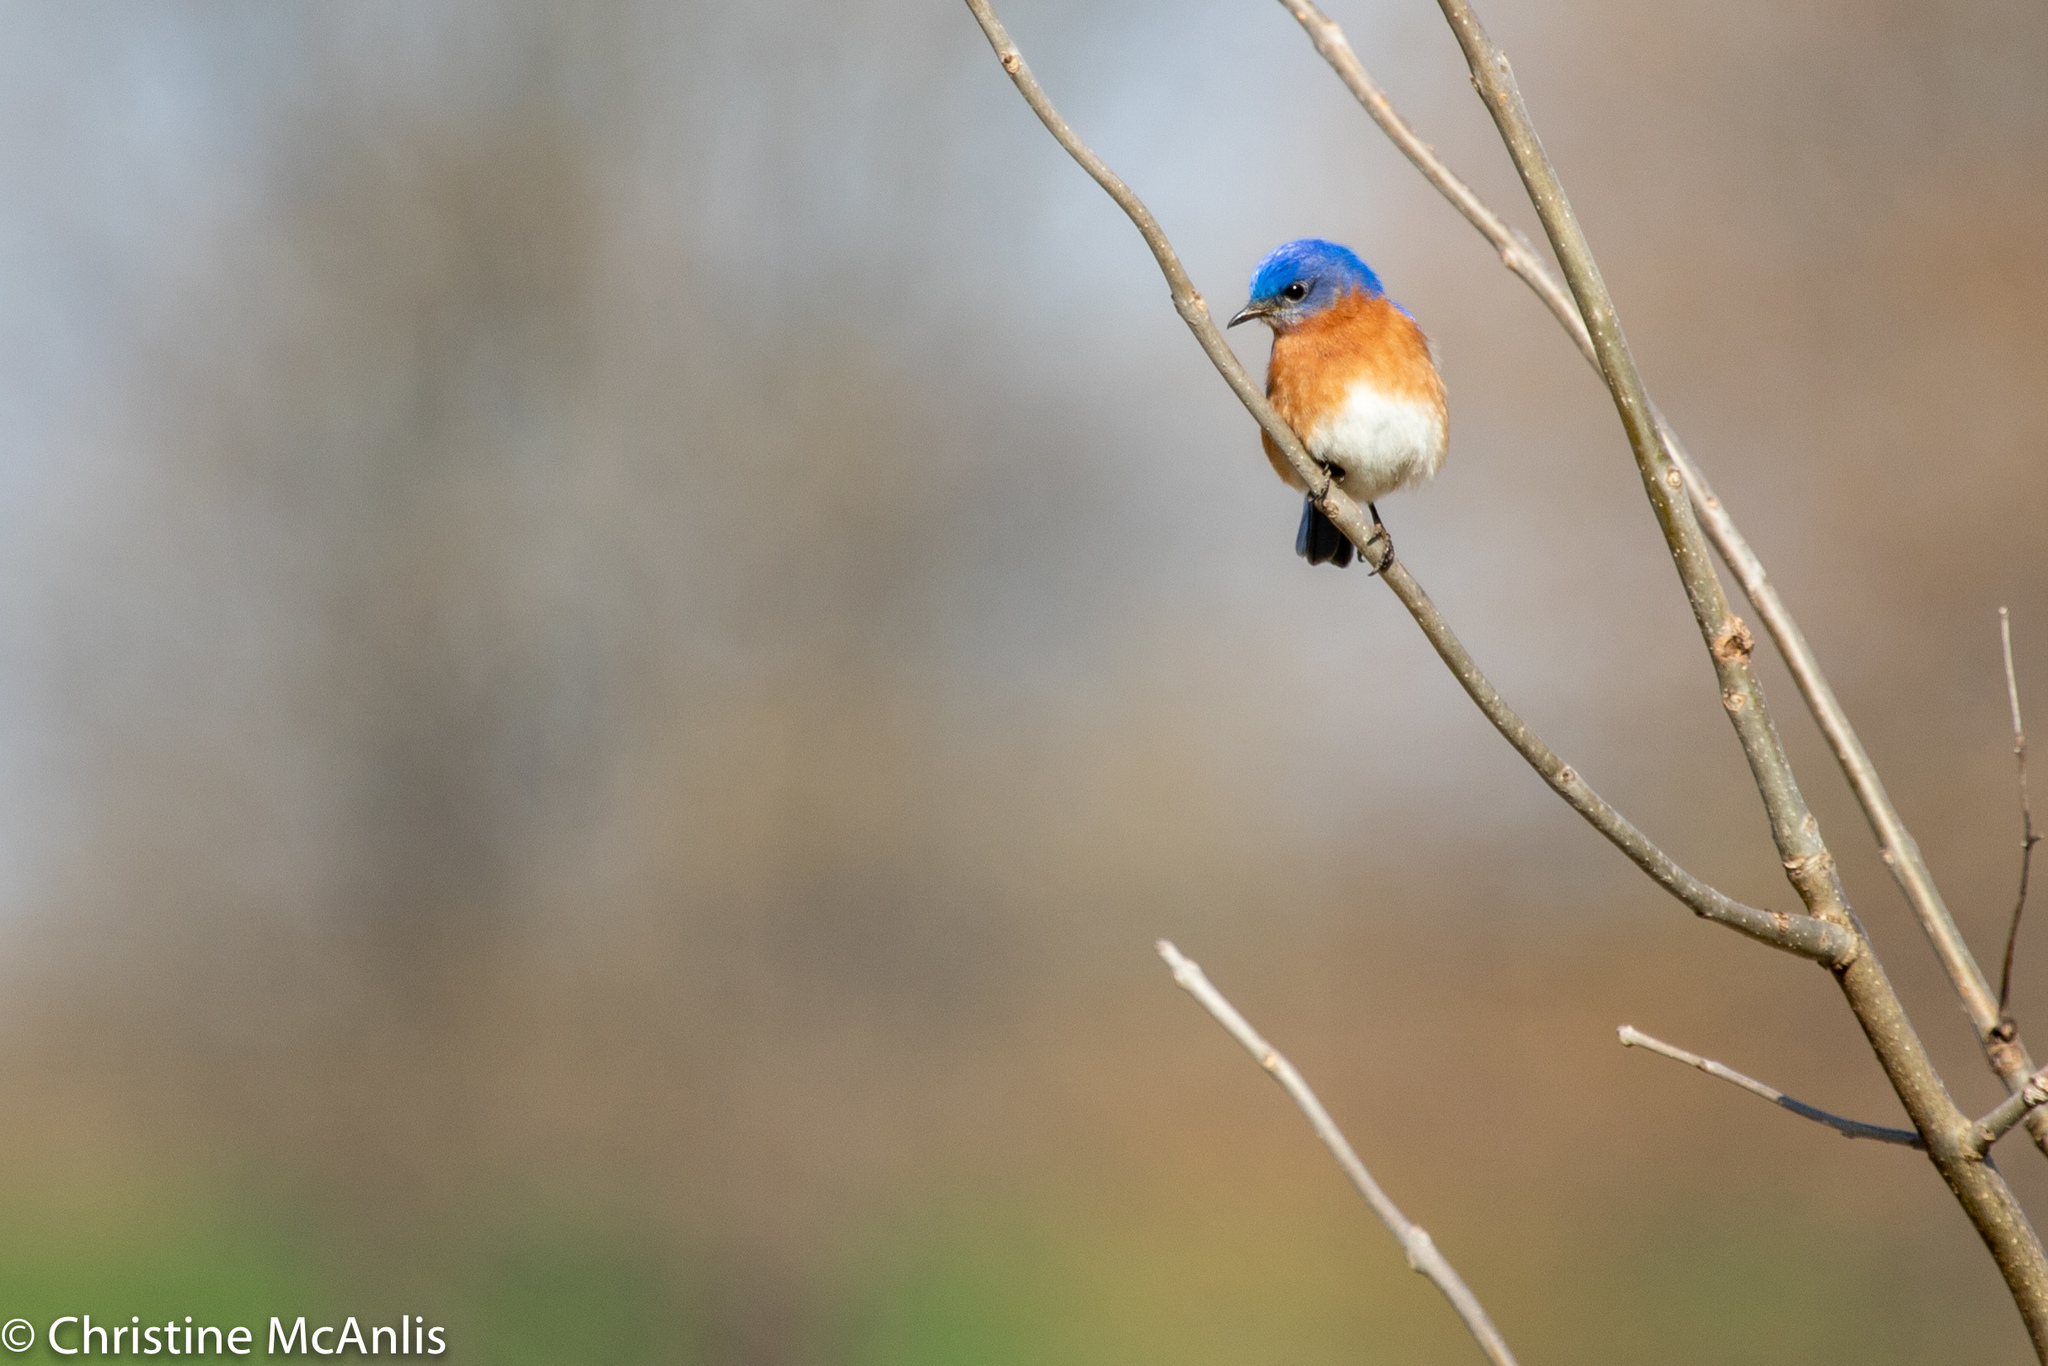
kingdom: Animalia
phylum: Chordata
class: Aves
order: Passeriformes
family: Turdidae
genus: Sialia
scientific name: Sialia sialis
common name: Eastern bluebird
